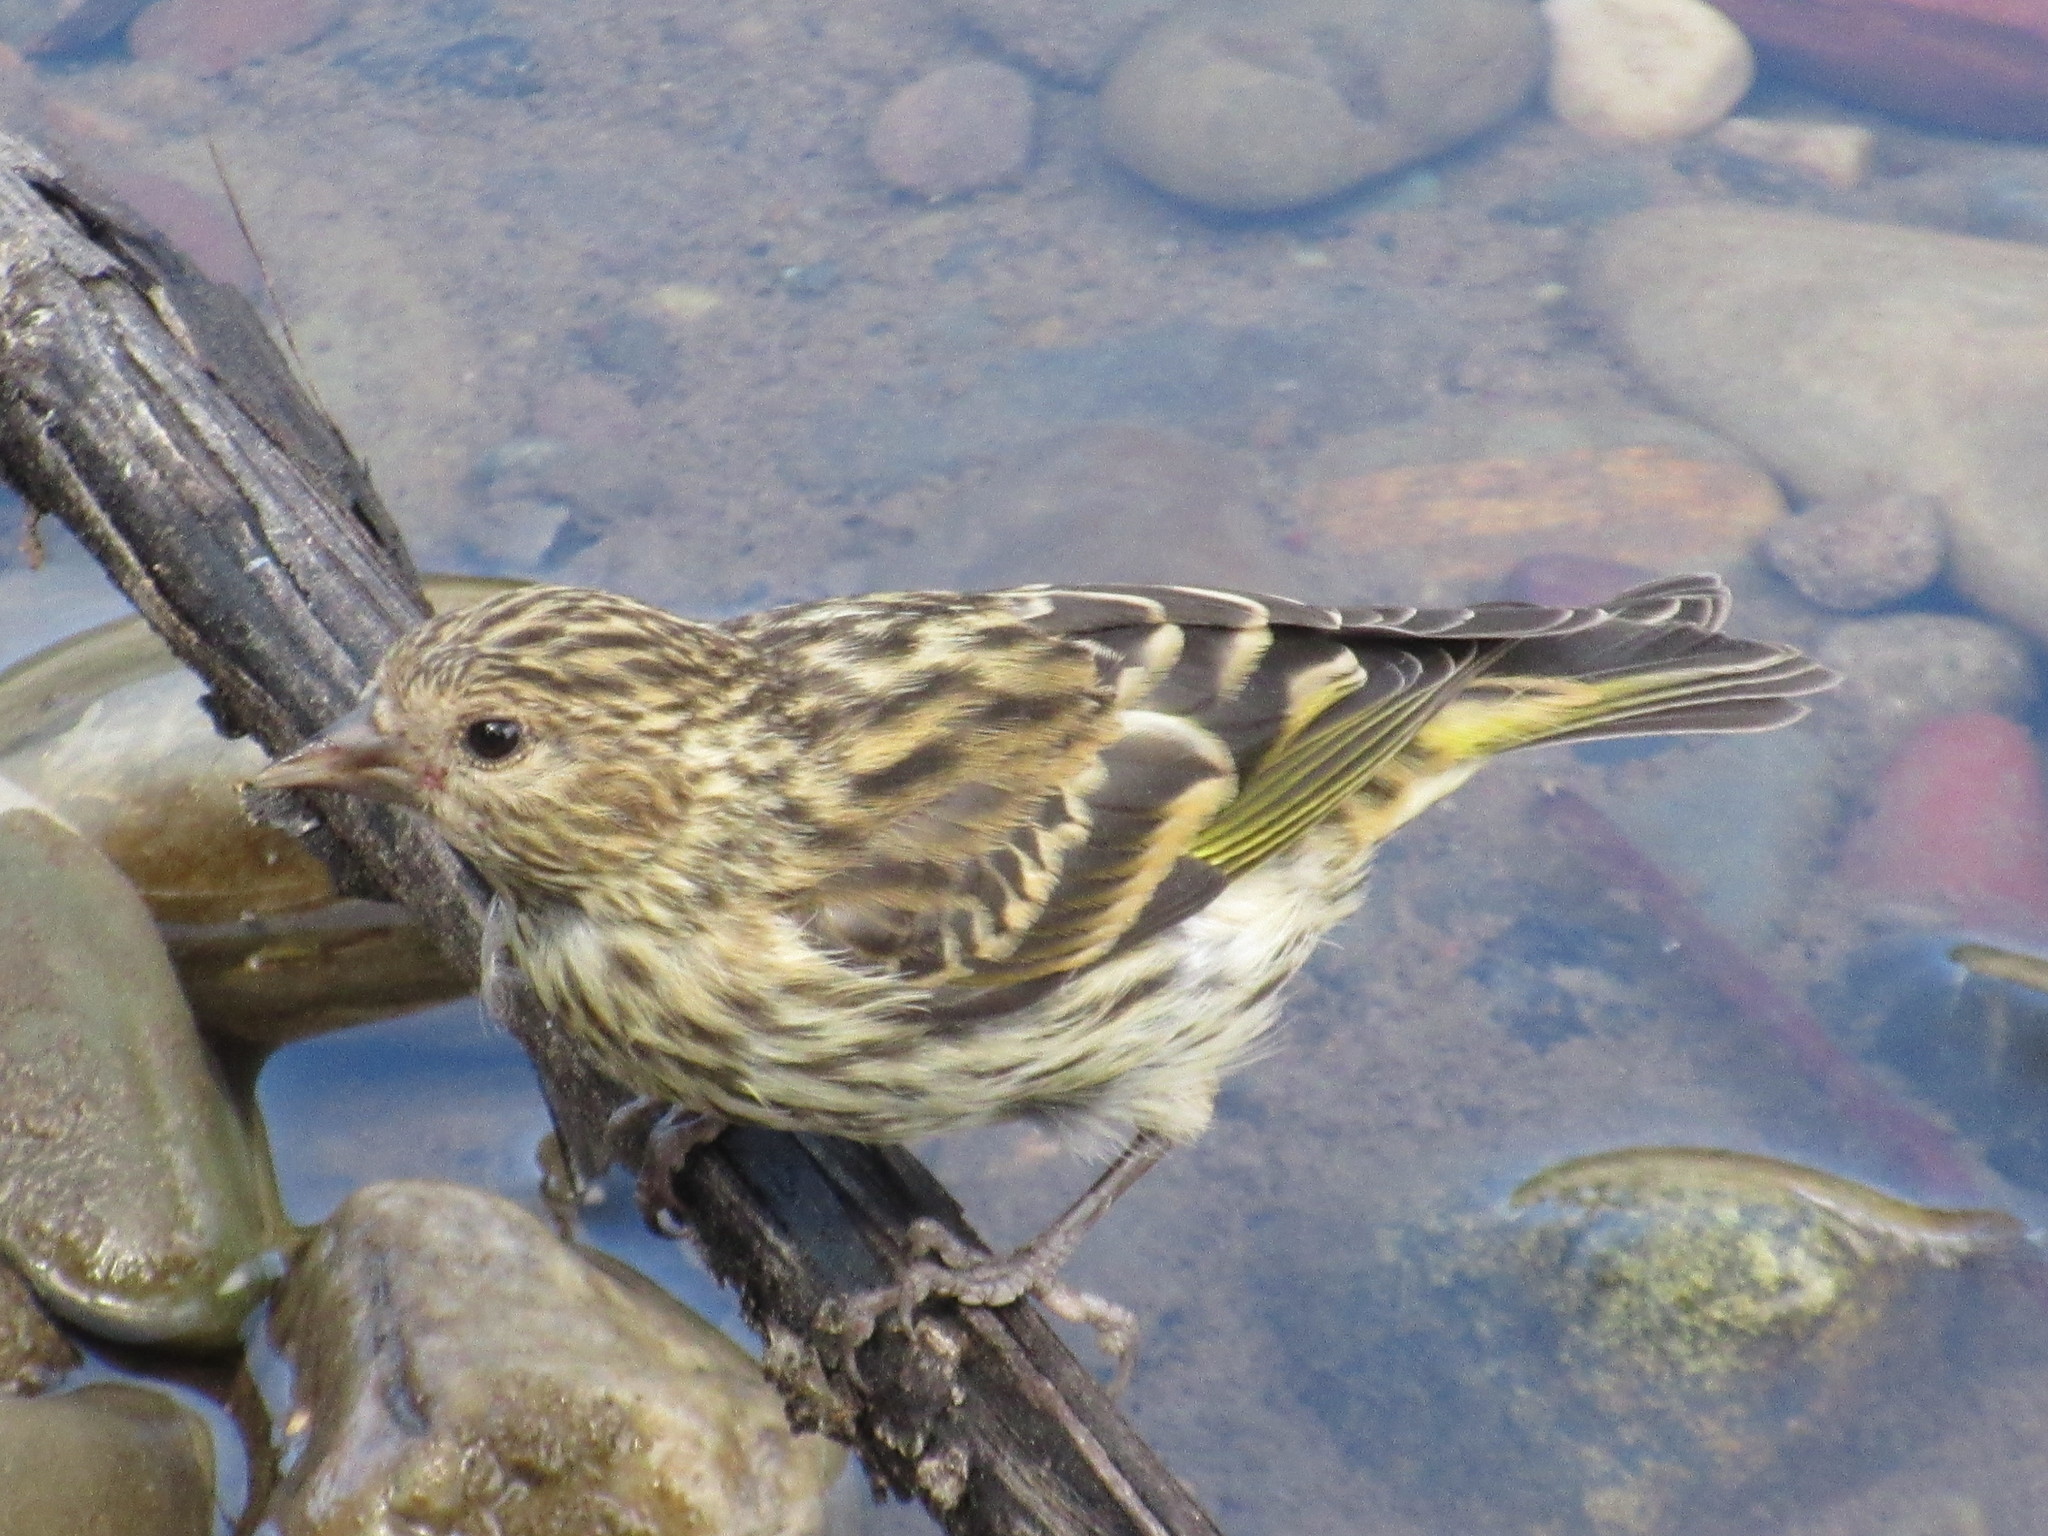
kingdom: Animalia
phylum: Chordata
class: Aves
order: Passeriformes
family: Fringillidae
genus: Spinus
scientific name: Spinus pinus
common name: Pine siskin
